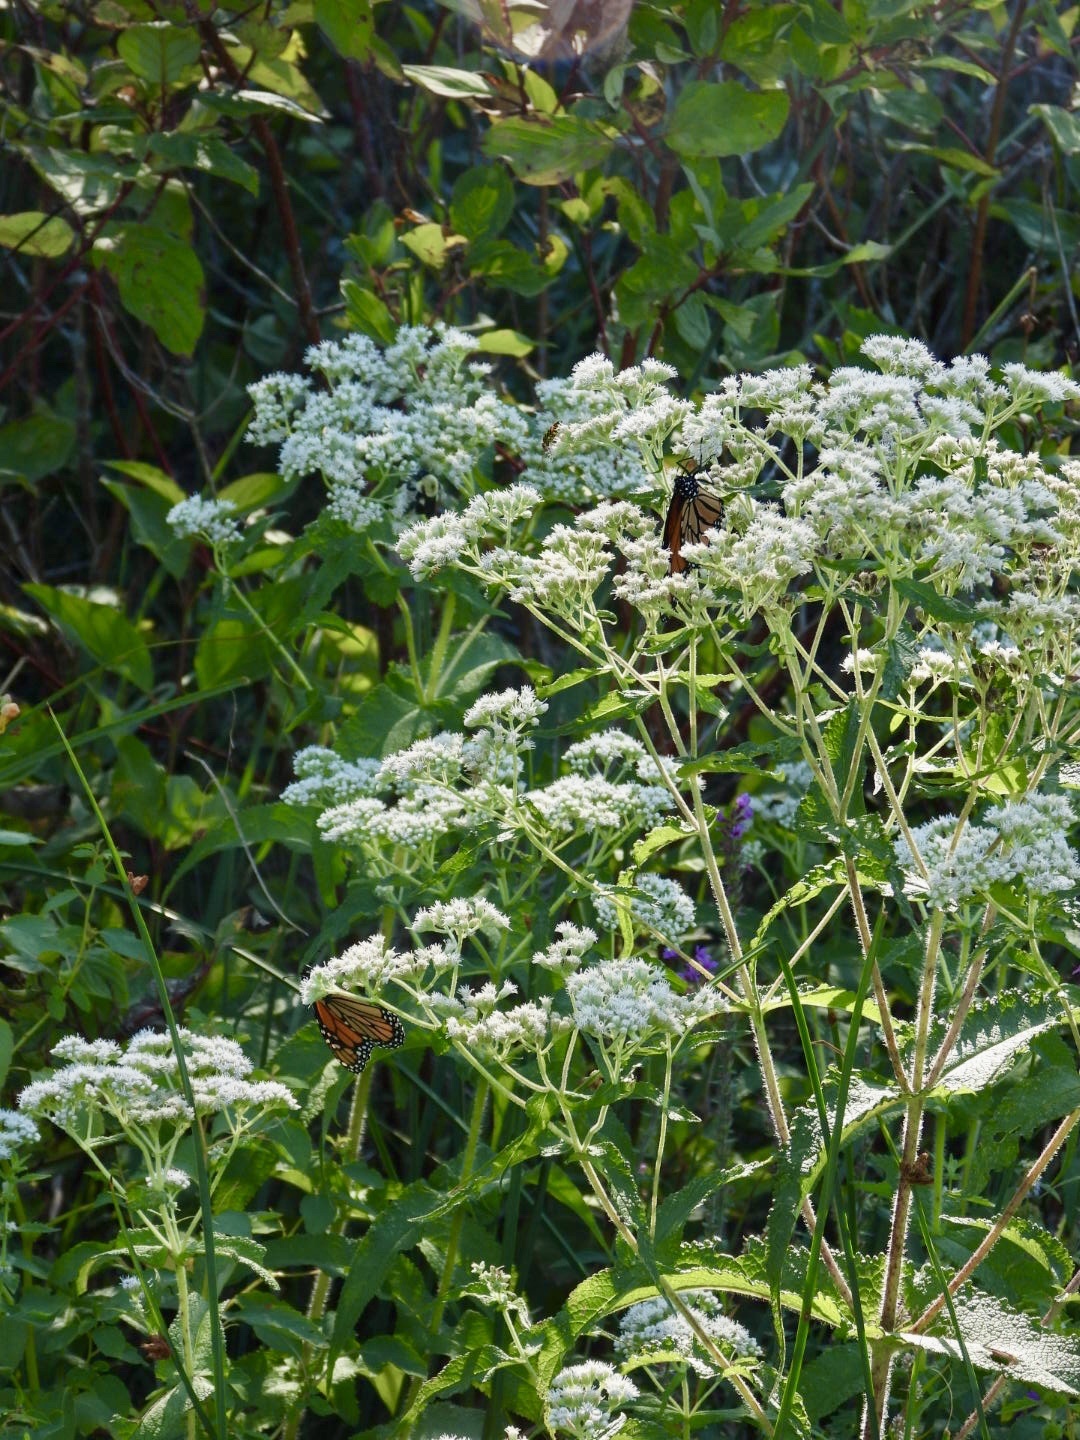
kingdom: Plantae
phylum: Tracheophyta
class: Magnoliopsida
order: Asterales
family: Asteraceae
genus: Eupatorium
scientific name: Eupatorium perfoliatum
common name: Boneset
